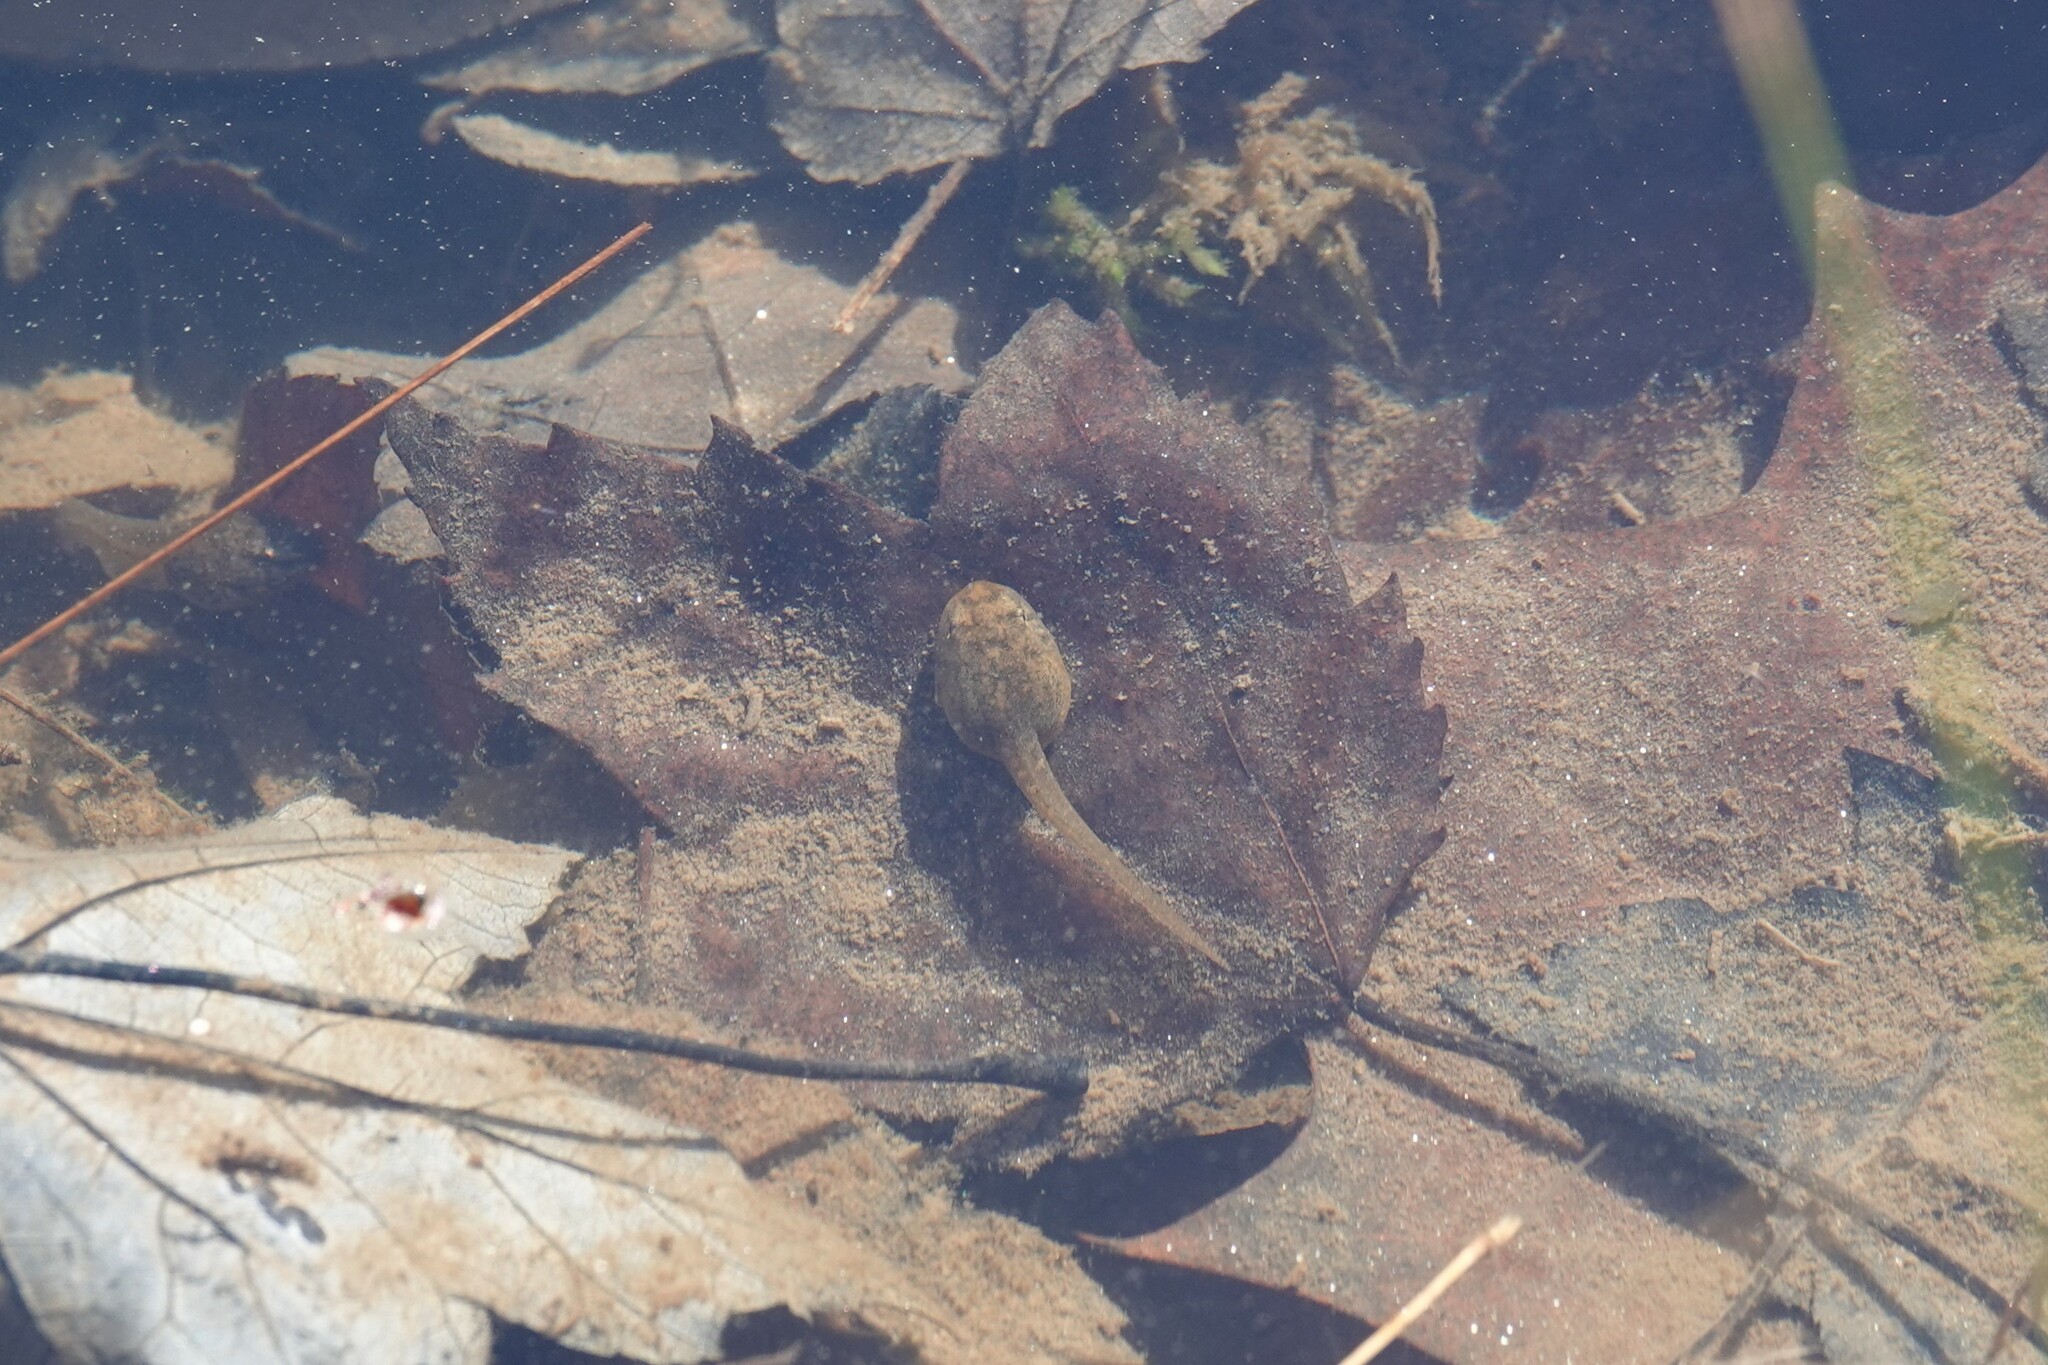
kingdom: Animalia
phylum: Chordata
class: Amphibia
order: Anura
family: Ranidae
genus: Lithobates
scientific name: Lithobates sylvaticus
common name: Wood frog
